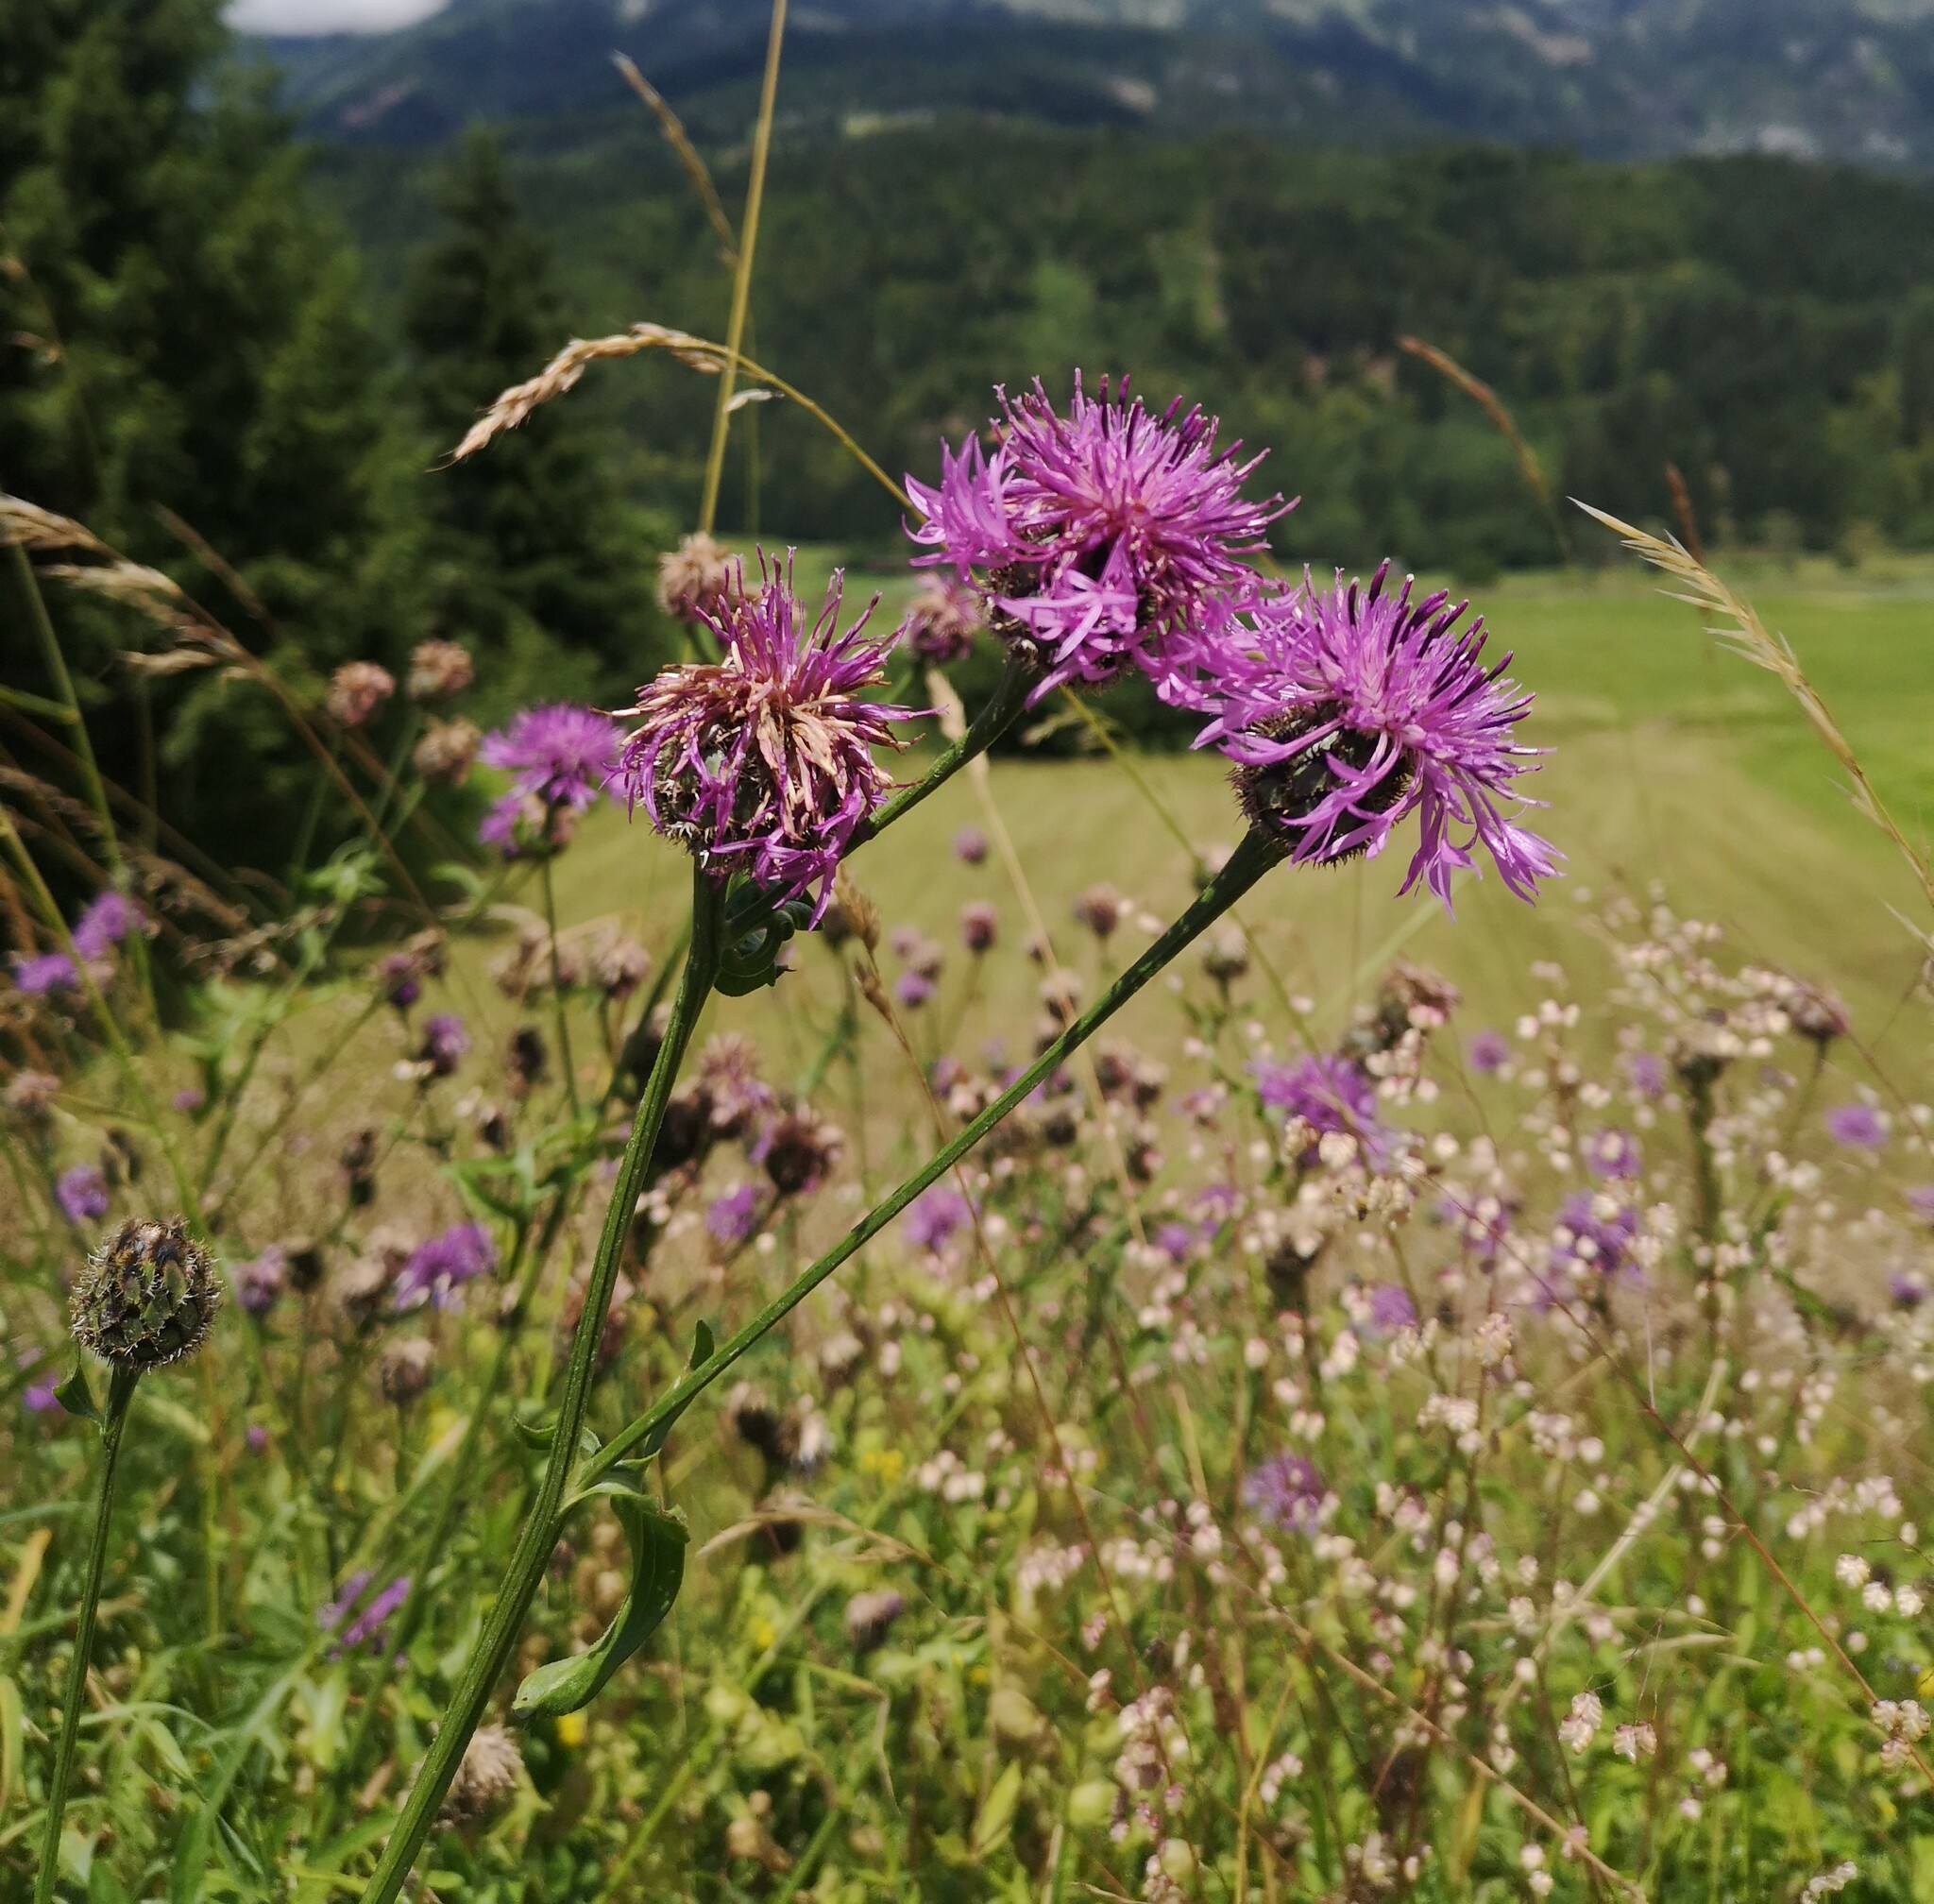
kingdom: Plantae
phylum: Tracheophyta
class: Magnoliopsida
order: Asterales
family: Asteraceae
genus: Centaurea
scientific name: Centaurea scabiosa
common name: Greater knapweed
